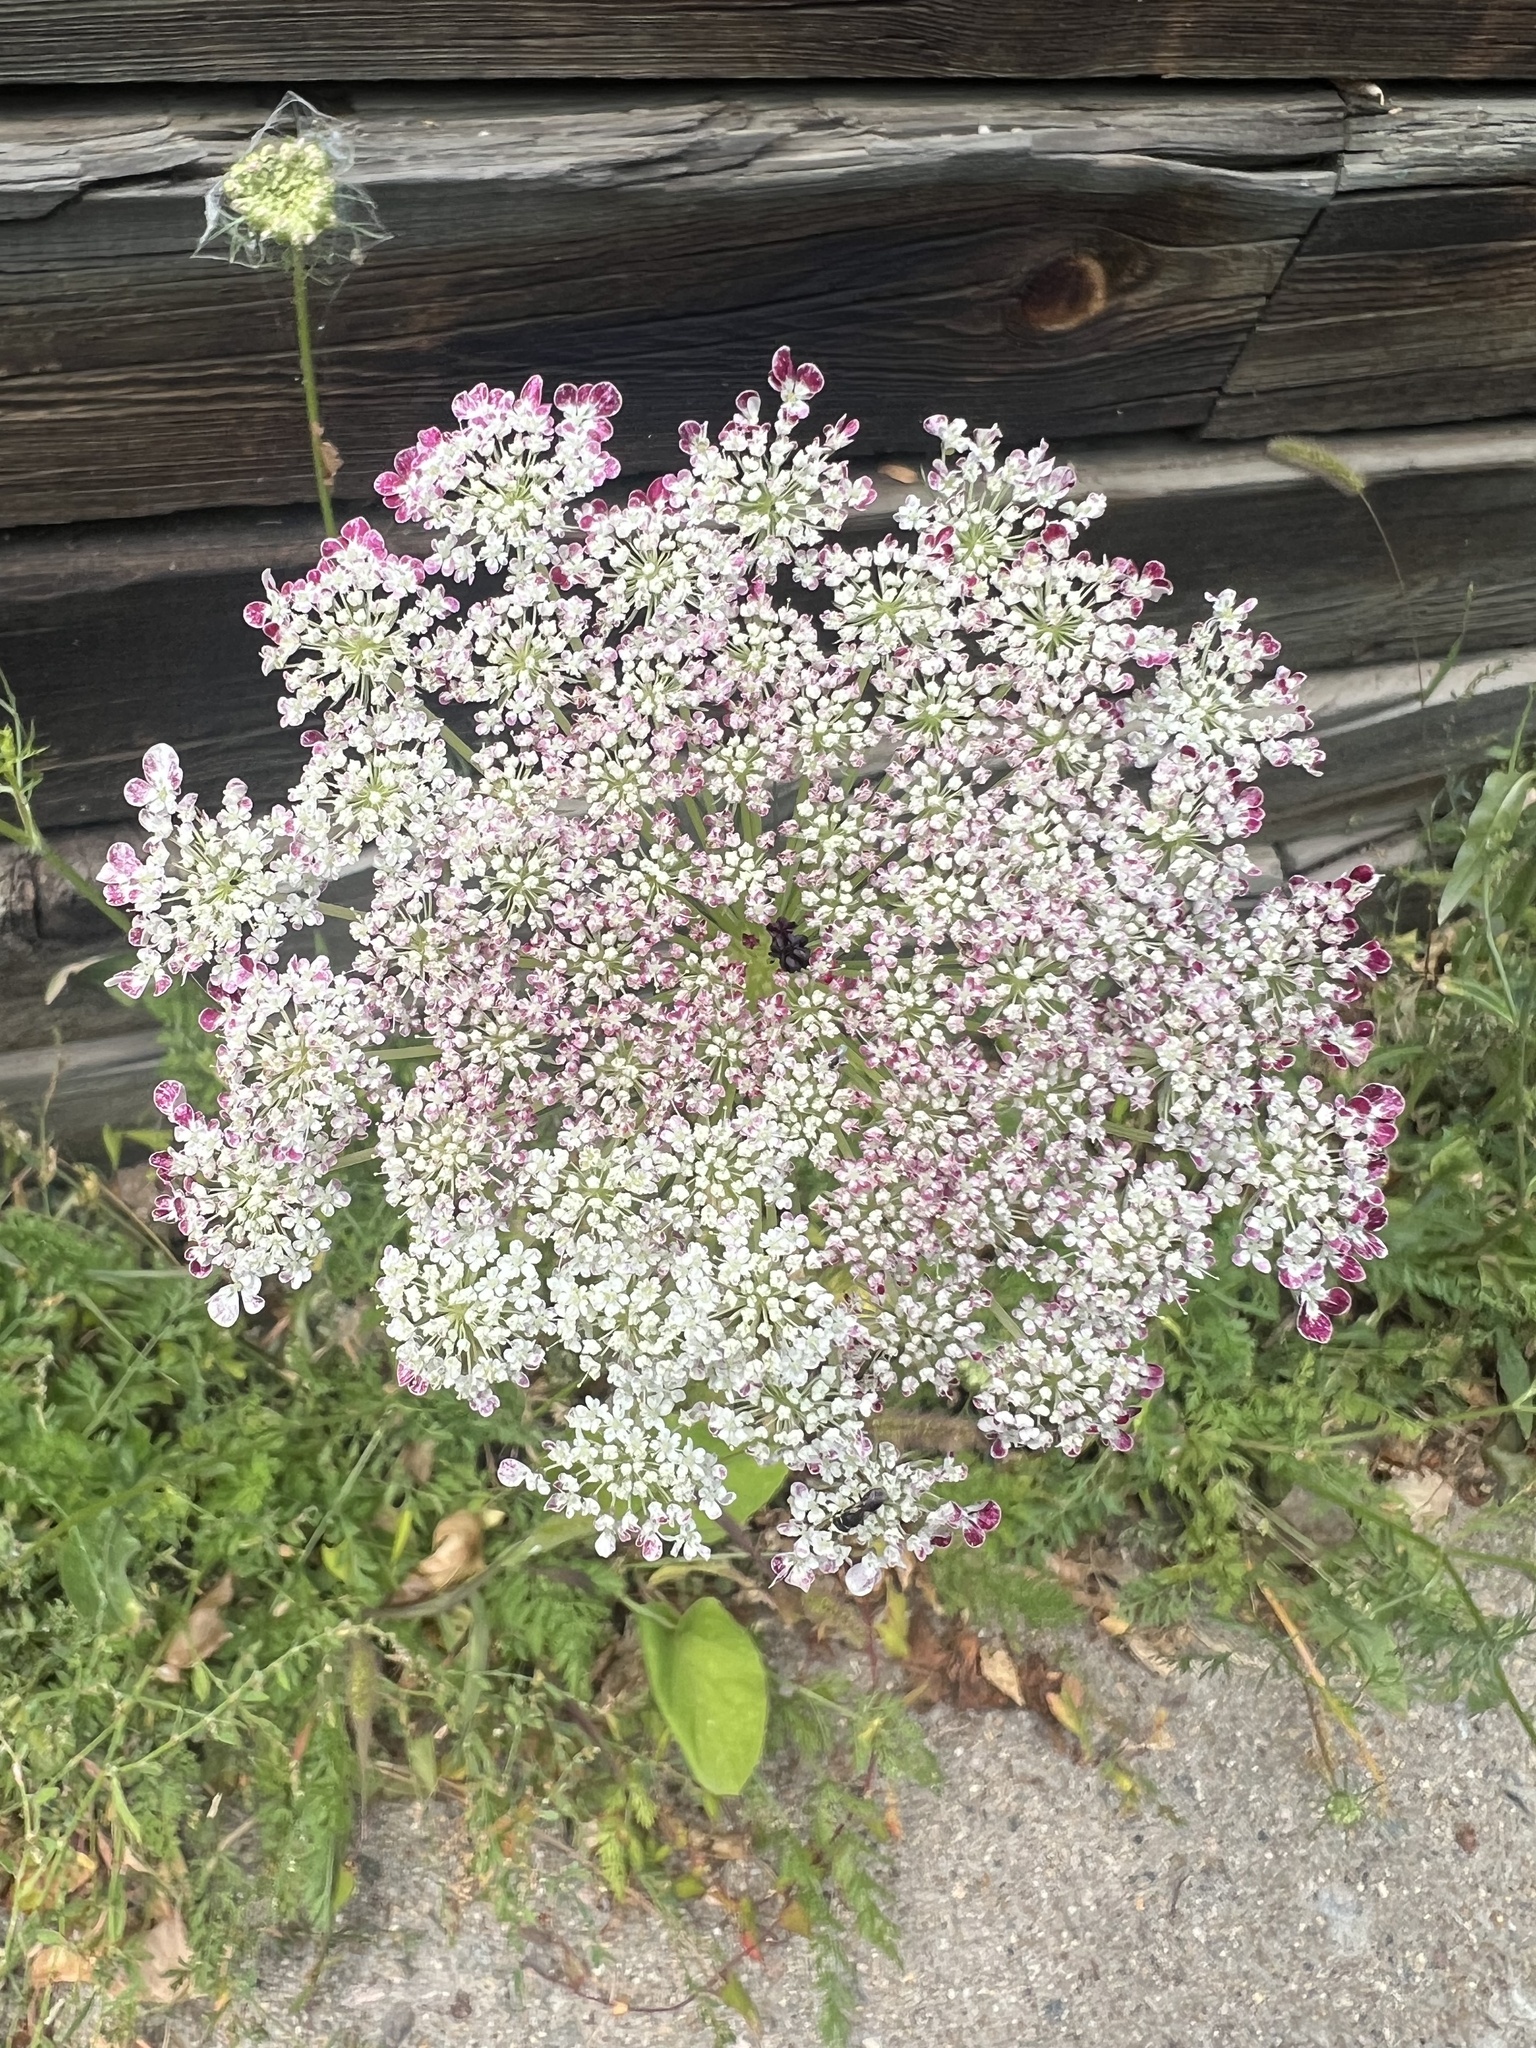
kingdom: Plantae
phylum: Tracheophyta
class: Magnoliopsida
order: Apiales
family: Apiaceae
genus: Daucus
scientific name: Daucus carota
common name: Wild carrot
